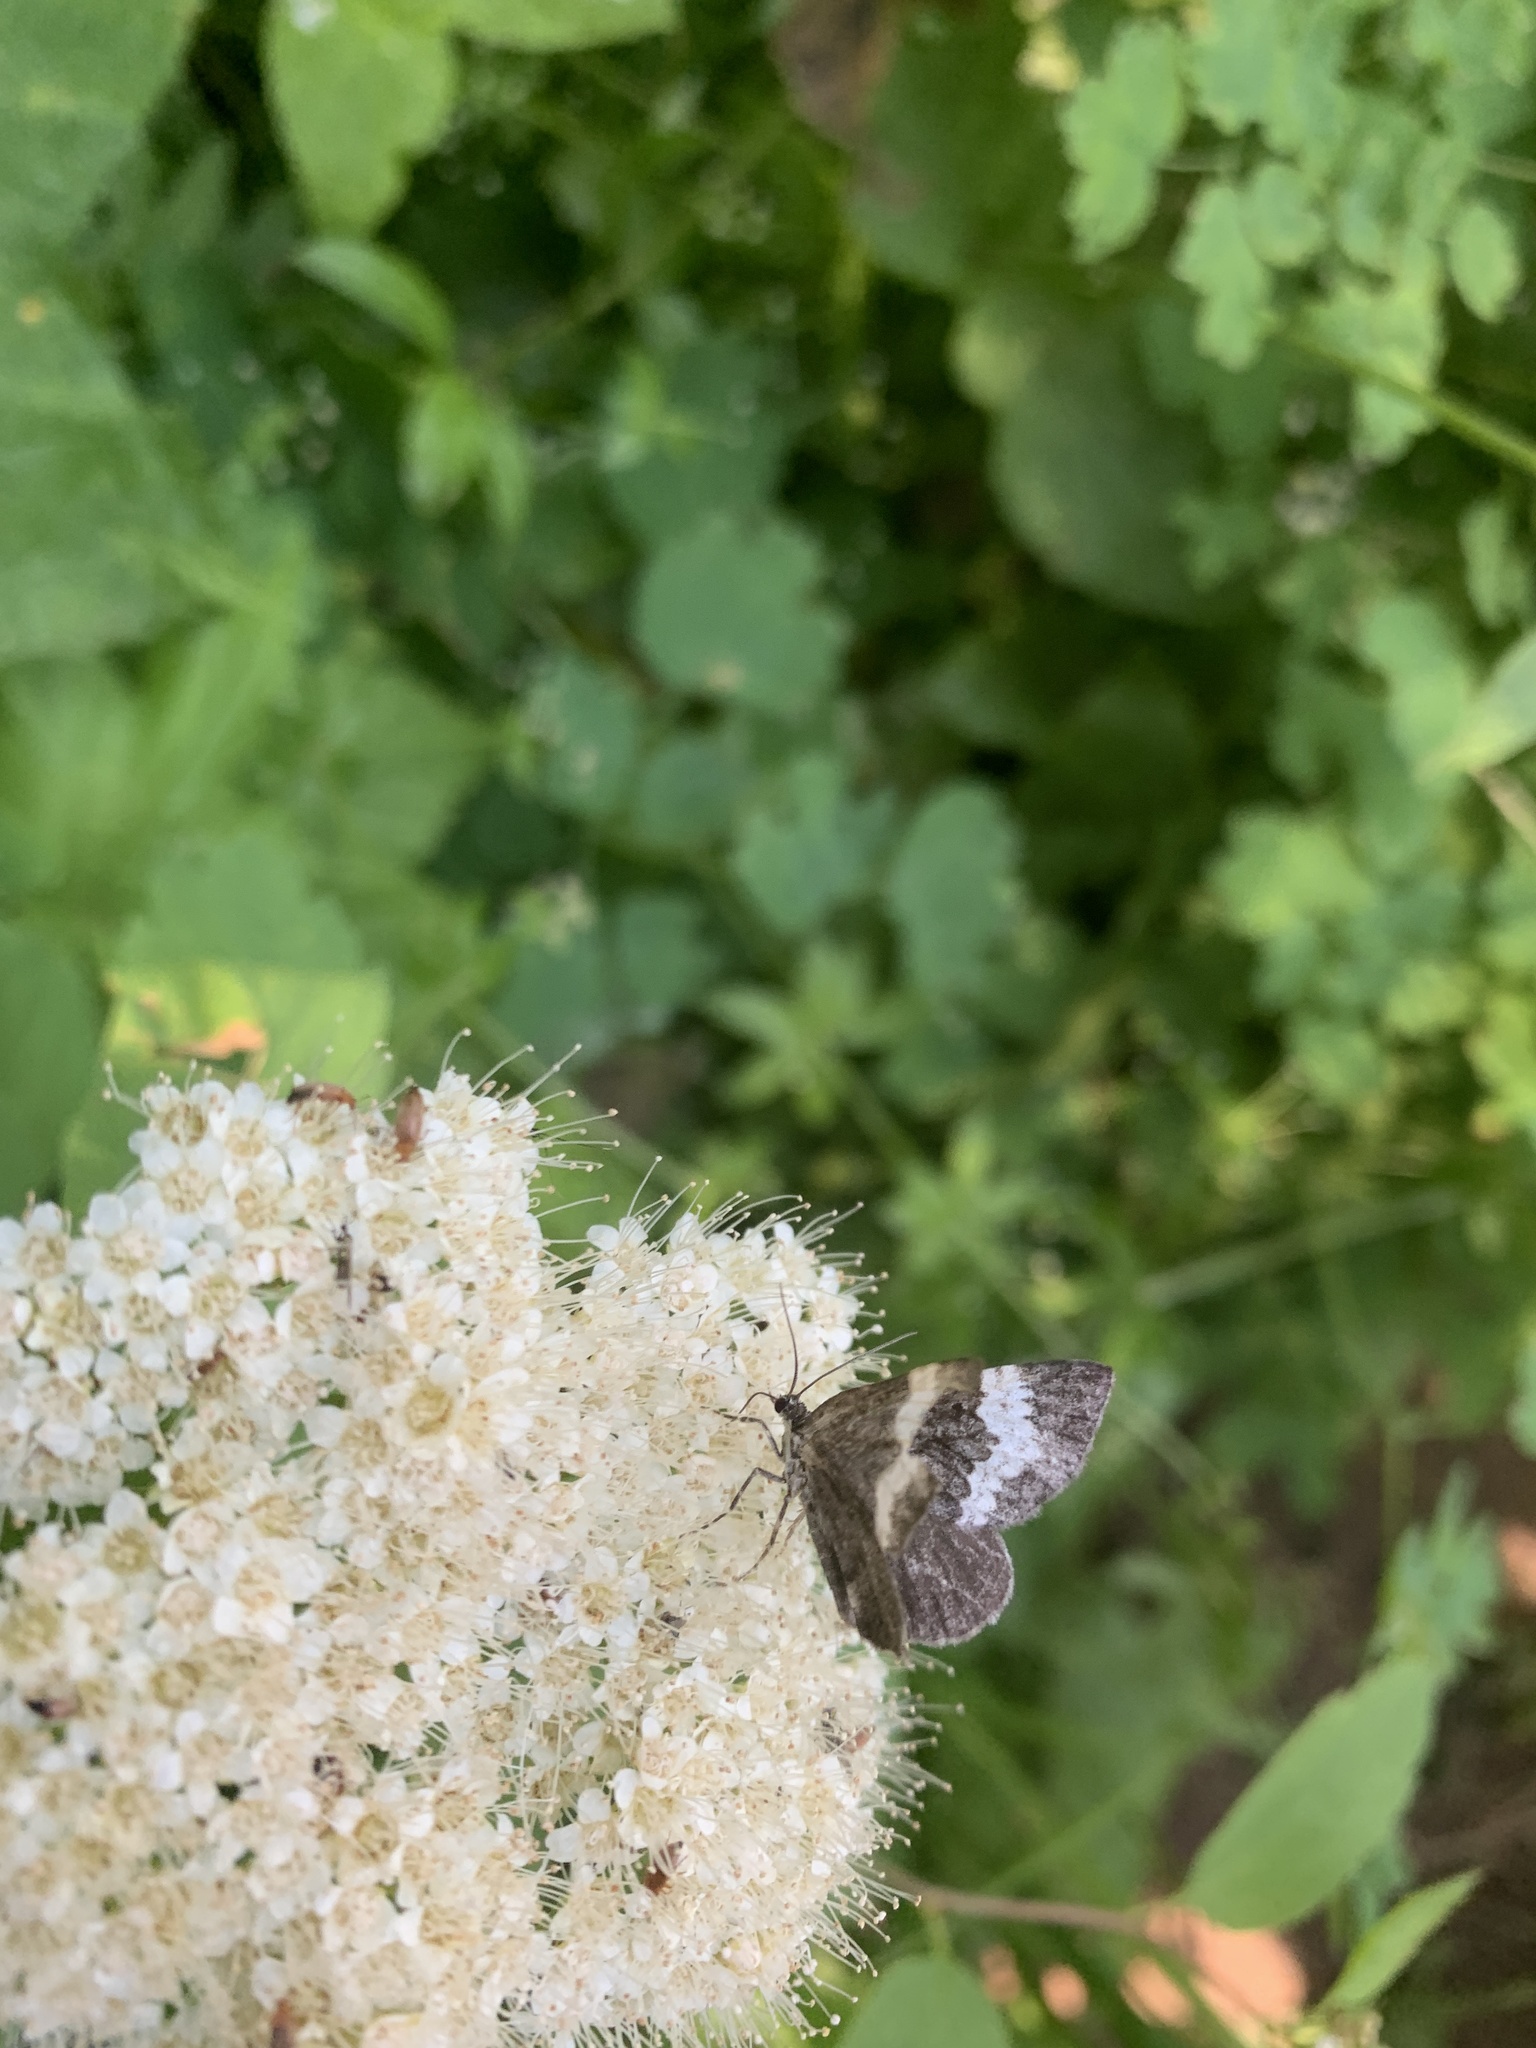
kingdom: Animalia
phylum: Arthropoda
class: Insecta
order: Lepidoptera
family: Geometridae
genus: Spargania
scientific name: Spargania luctuata
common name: White-banded carpet
